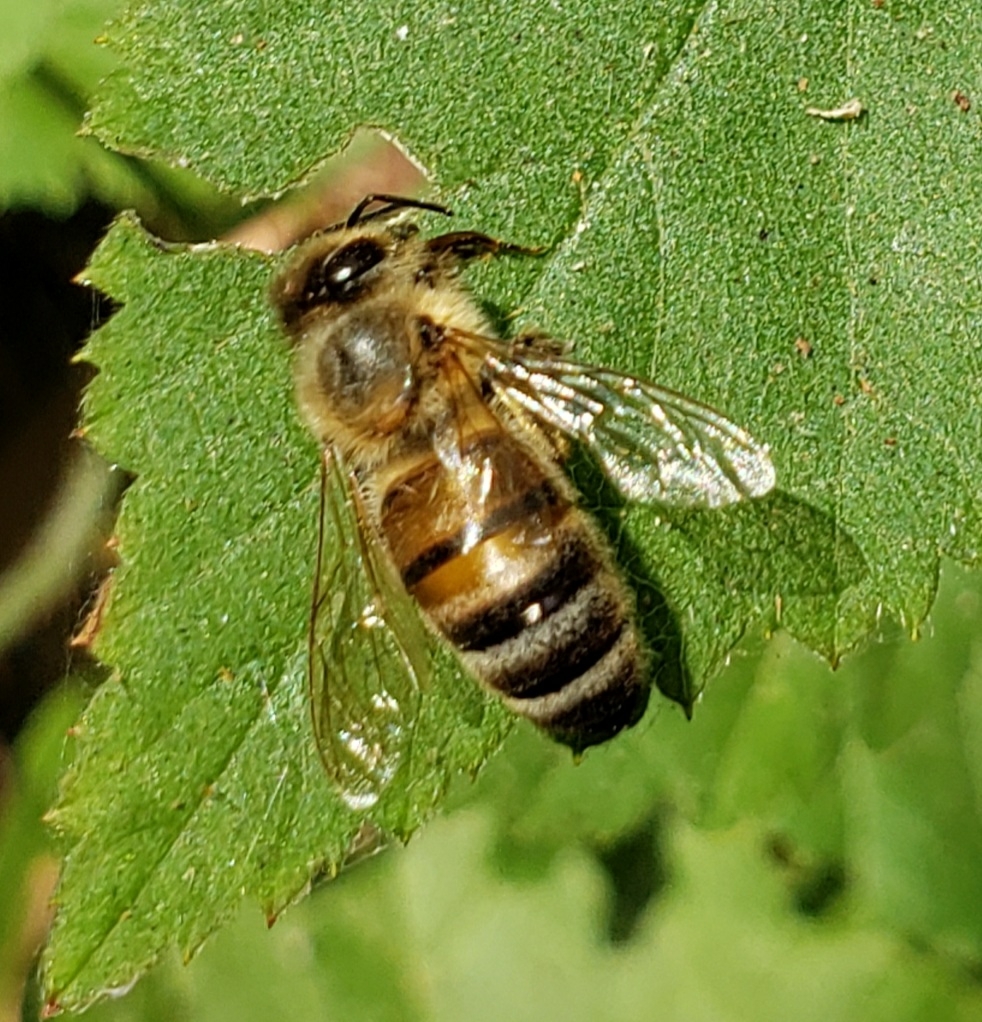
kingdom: Animalia
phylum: Arthropoda
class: Insecta
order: Hymenoptera
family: Apidae
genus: Apis
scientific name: Apis mellifera
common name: Honey bee
